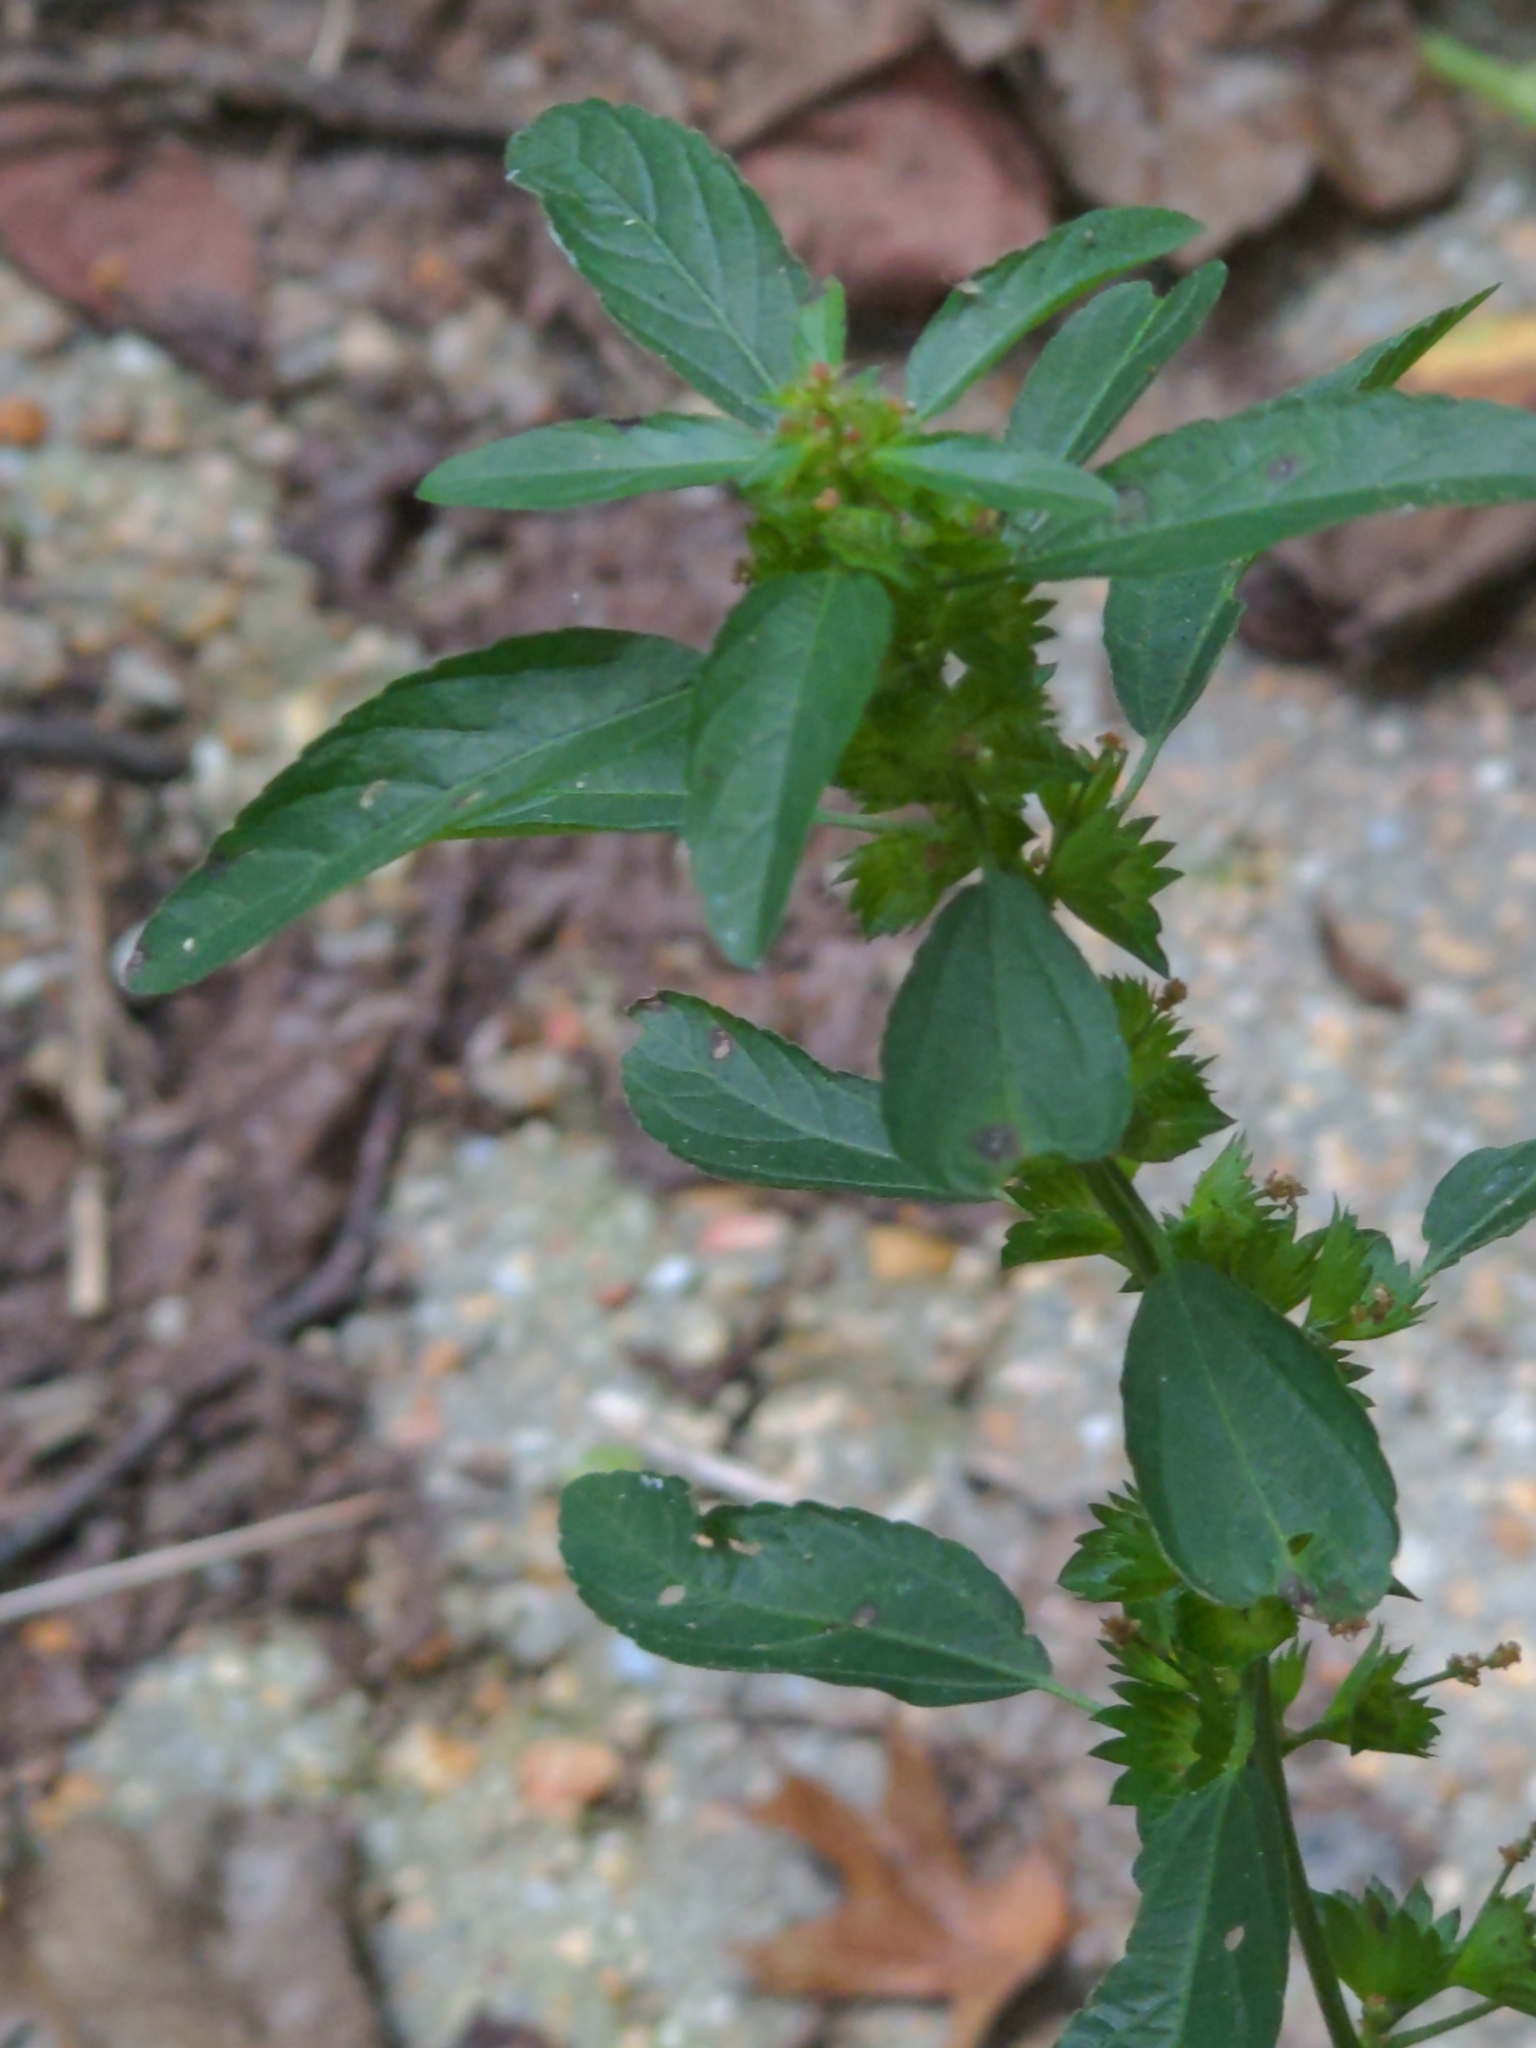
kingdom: Plantae
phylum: Tracheophyta
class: Magnoliopsida
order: Malpighiales
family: Euphorbiaceae
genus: Acalypha
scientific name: Acalypha virginica
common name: Virginia copperleaf
